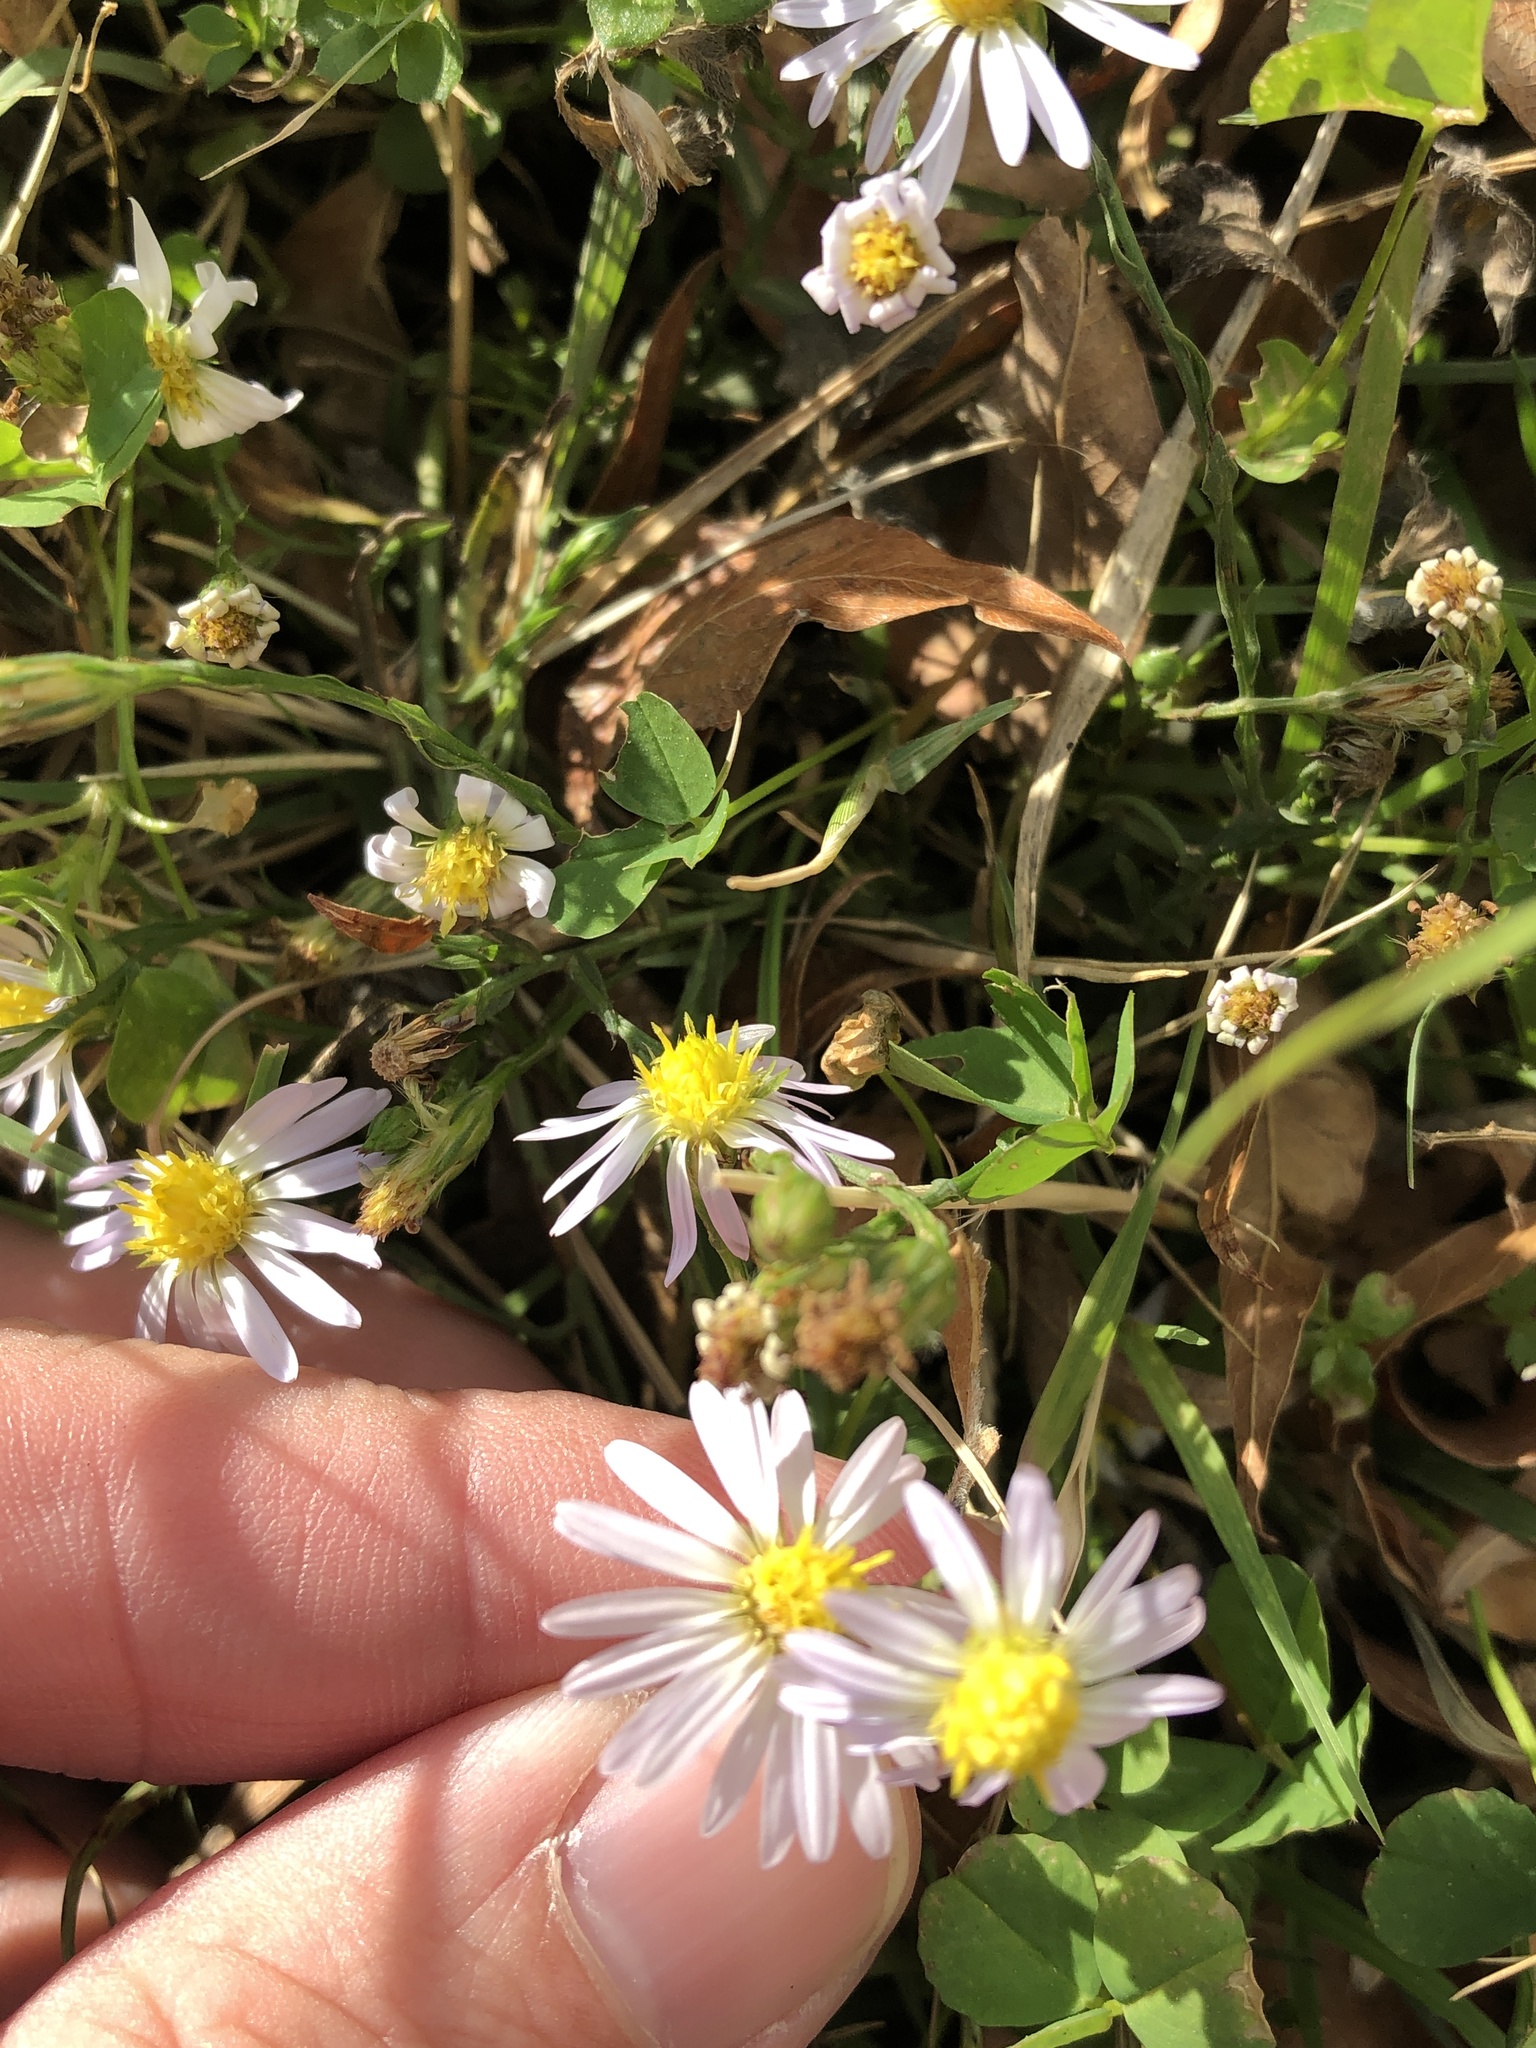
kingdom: Plantae
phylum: Tracheophyta
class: Magnoliopsida
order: Asterales
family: Asteraceae
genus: Symphyotrichum
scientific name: Symphyotrichum divaricatum
